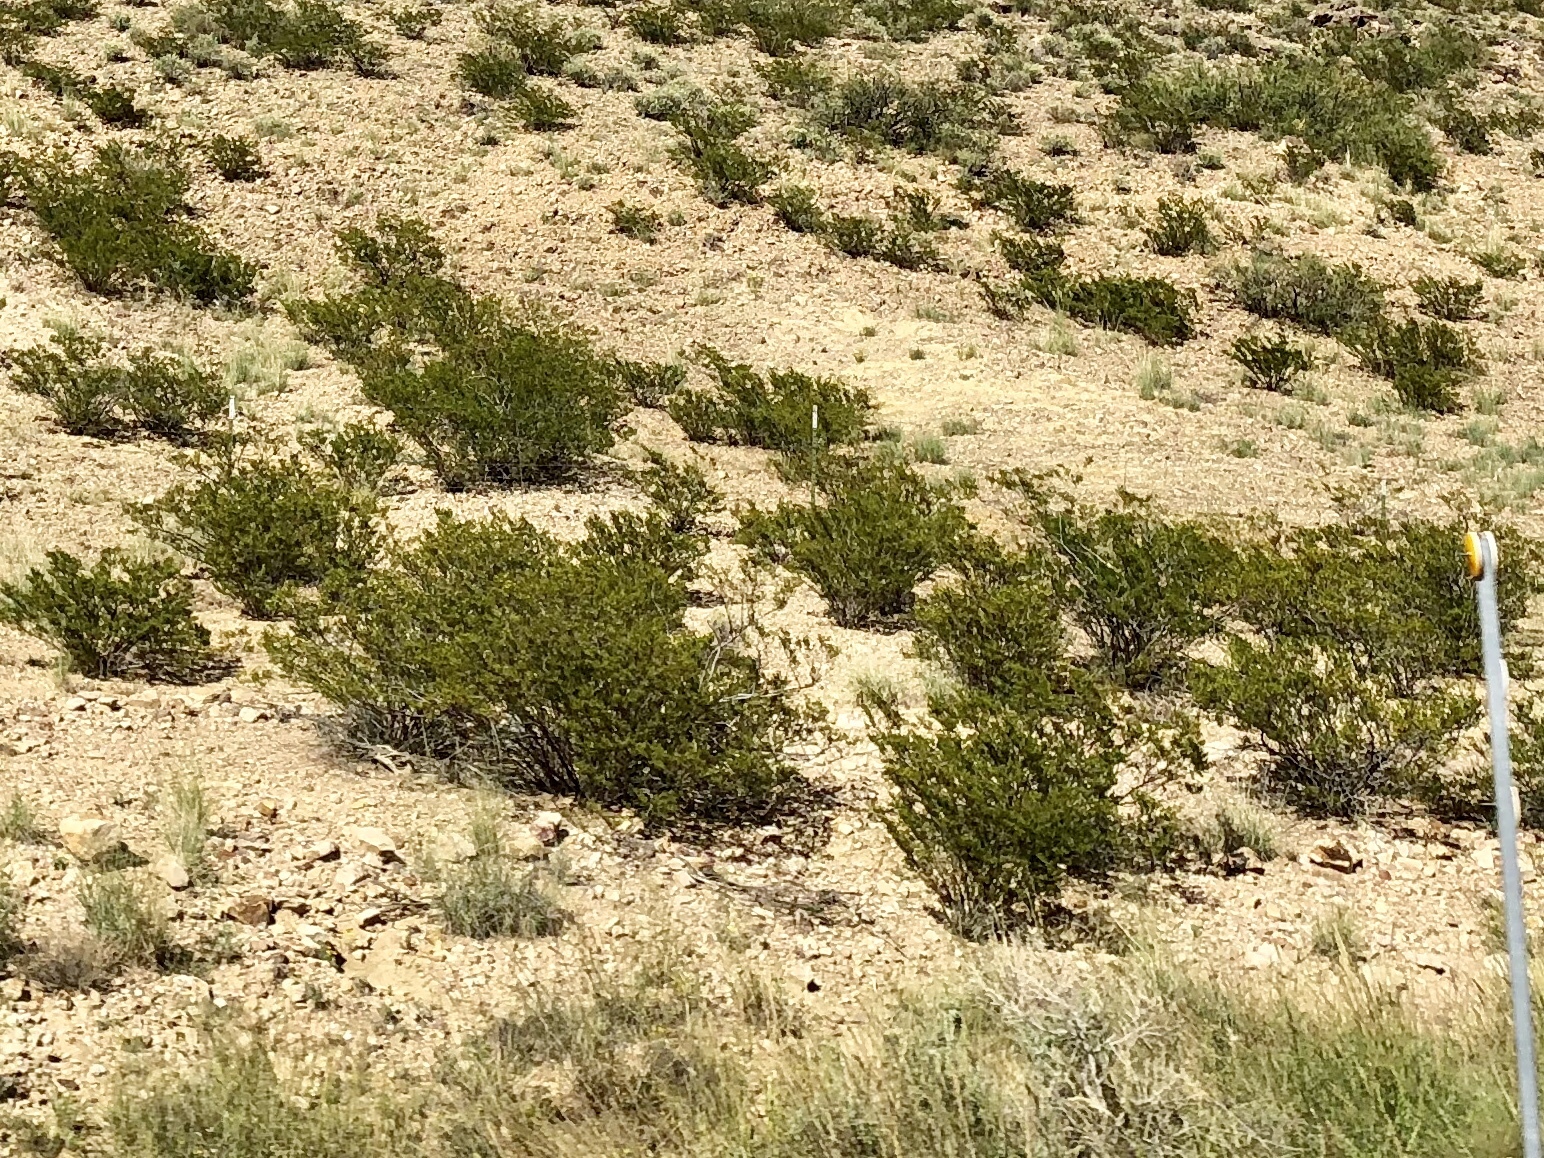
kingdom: Plantae
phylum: Tracheophyta
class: Magnoliopsida
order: Zygophyllales
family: Zygophyllaceae
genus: Larrea
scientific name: Larrea tridentata
